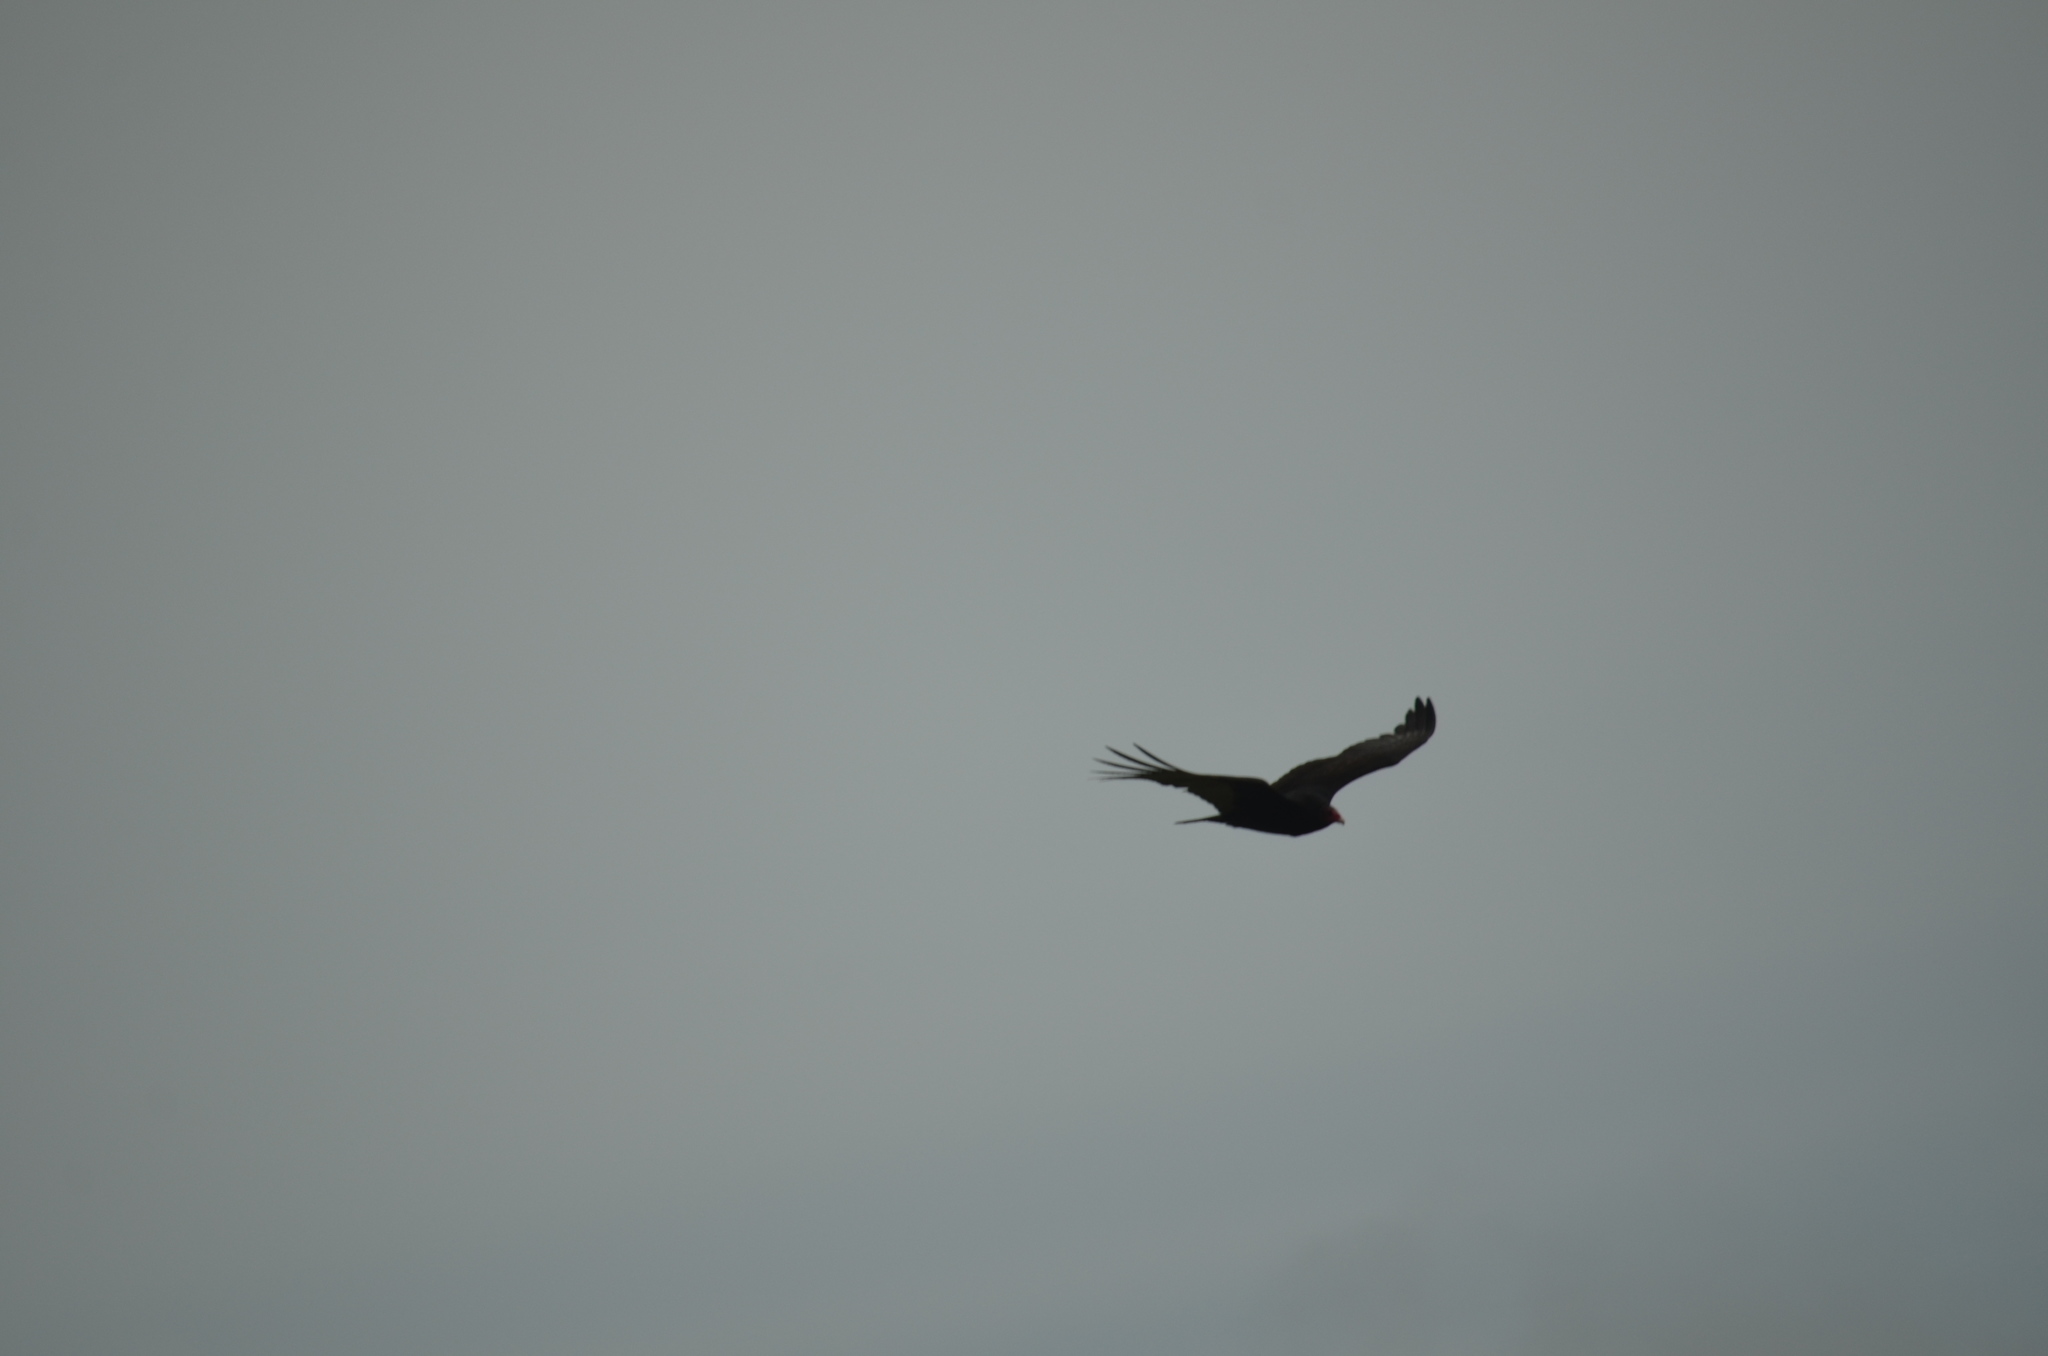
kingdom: Animalia
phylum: Chordata
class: Aves
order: Accipitriformes
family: Cathartidae
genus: Cathartes
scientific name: Cathartes aura
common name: Turkey vulture
